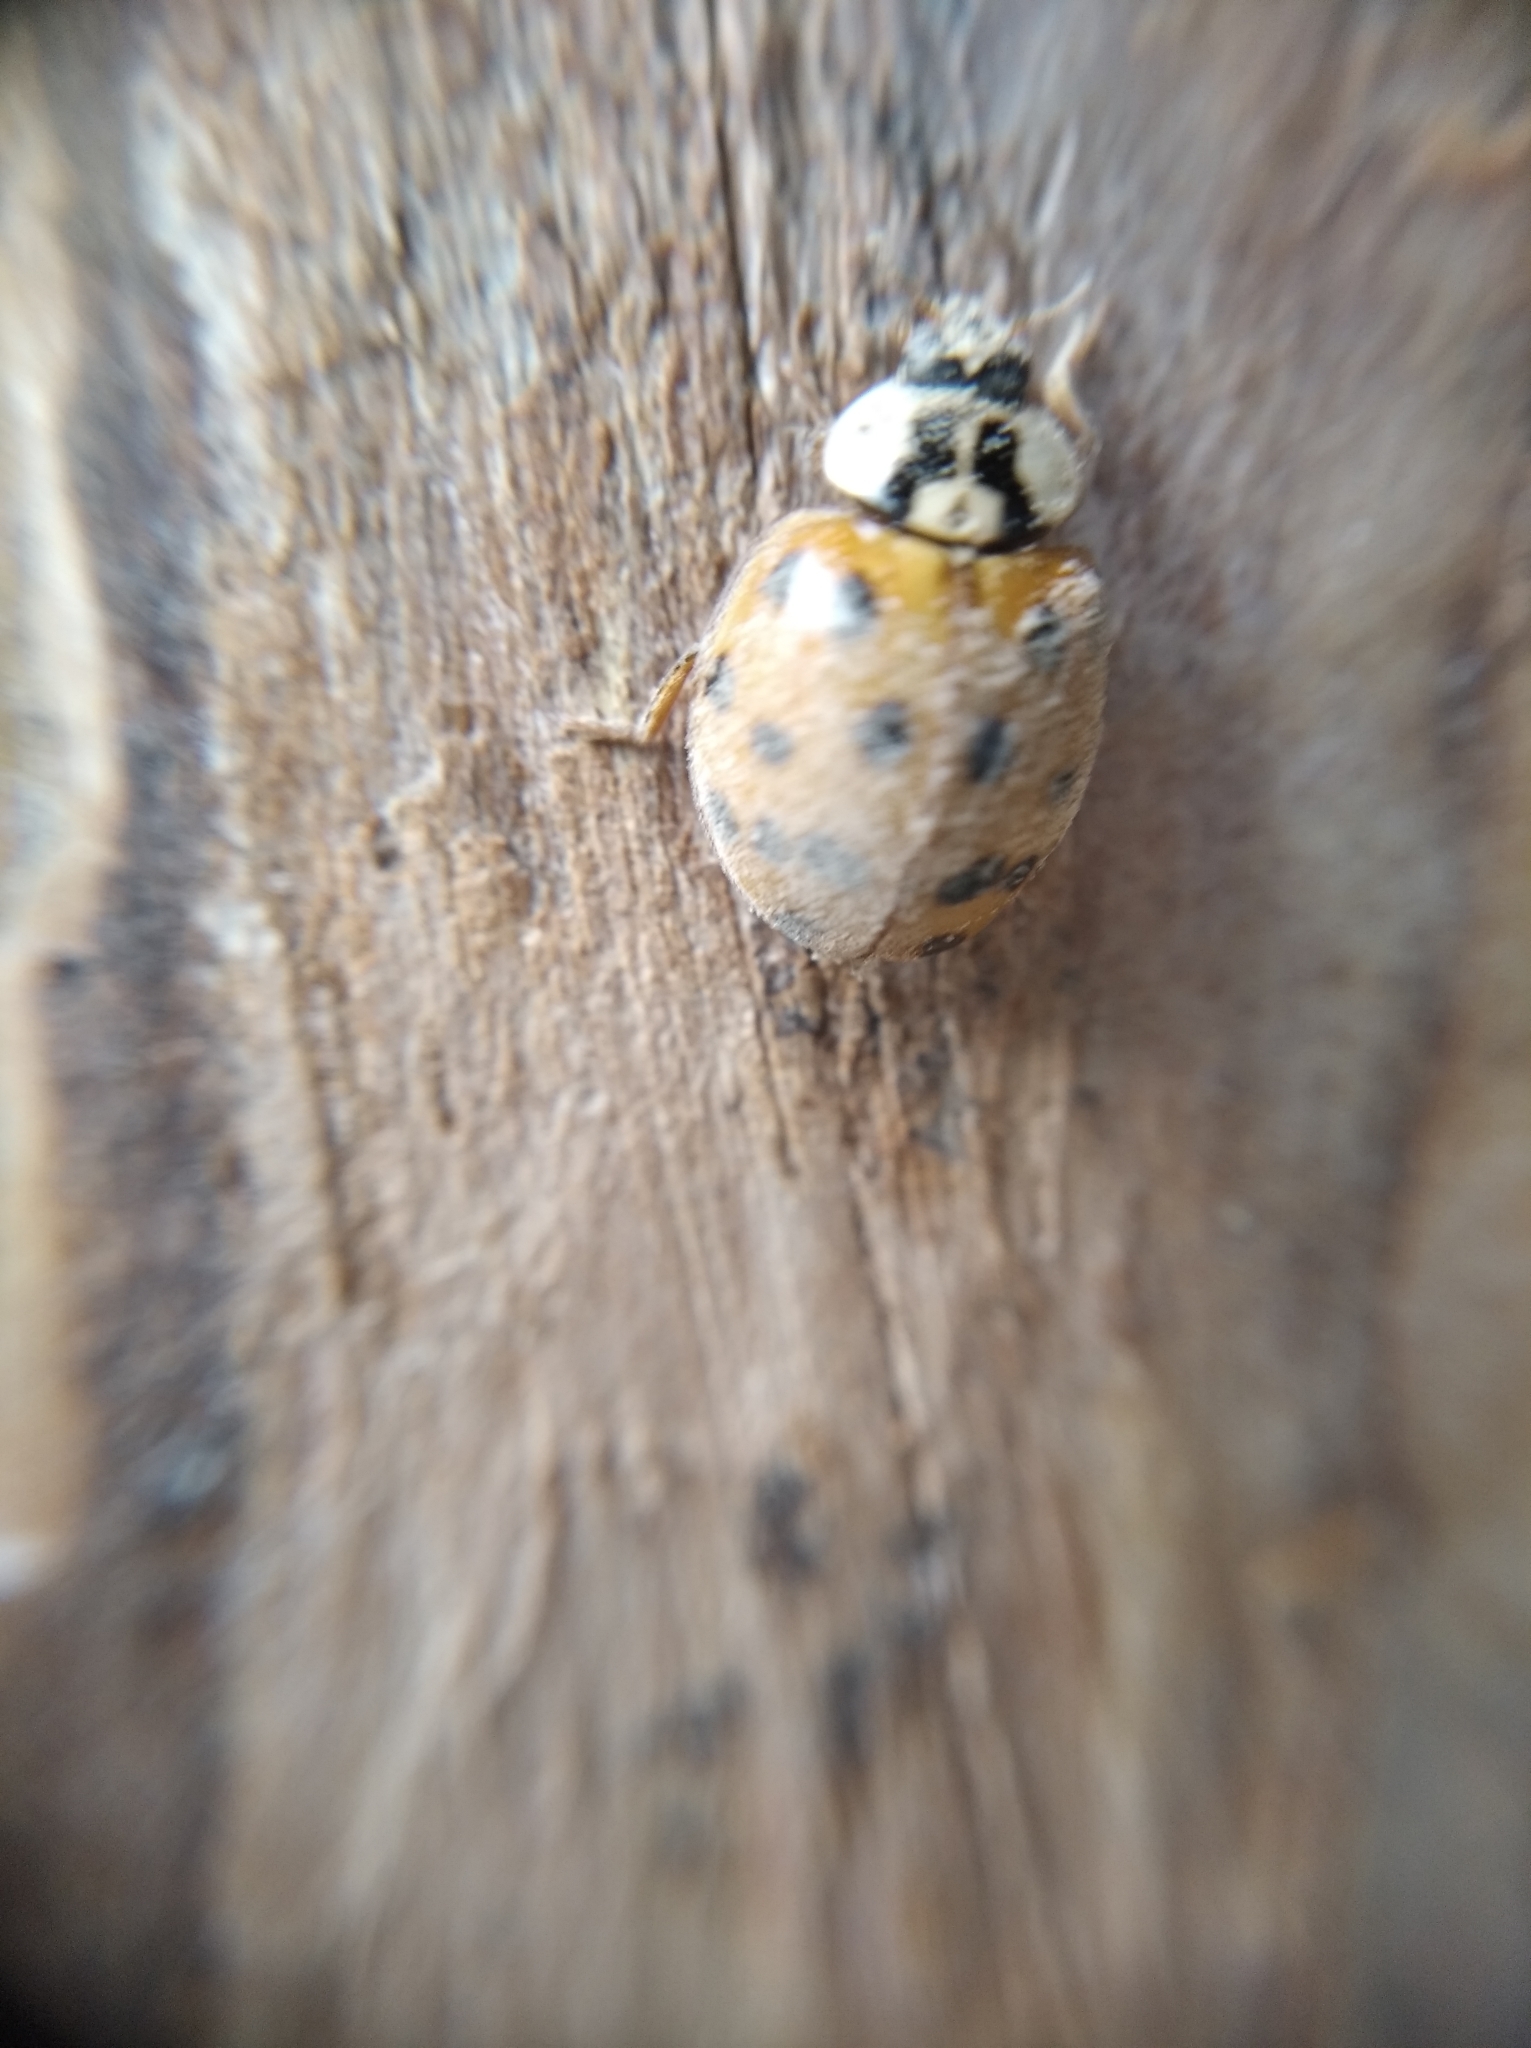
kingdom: Animalia
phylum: Arthropoda
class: Insecta
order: Coleoptera
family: Coccinellidae
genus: Harmonia
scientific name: Harmonia axyridis
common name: Harlequin ladybird
